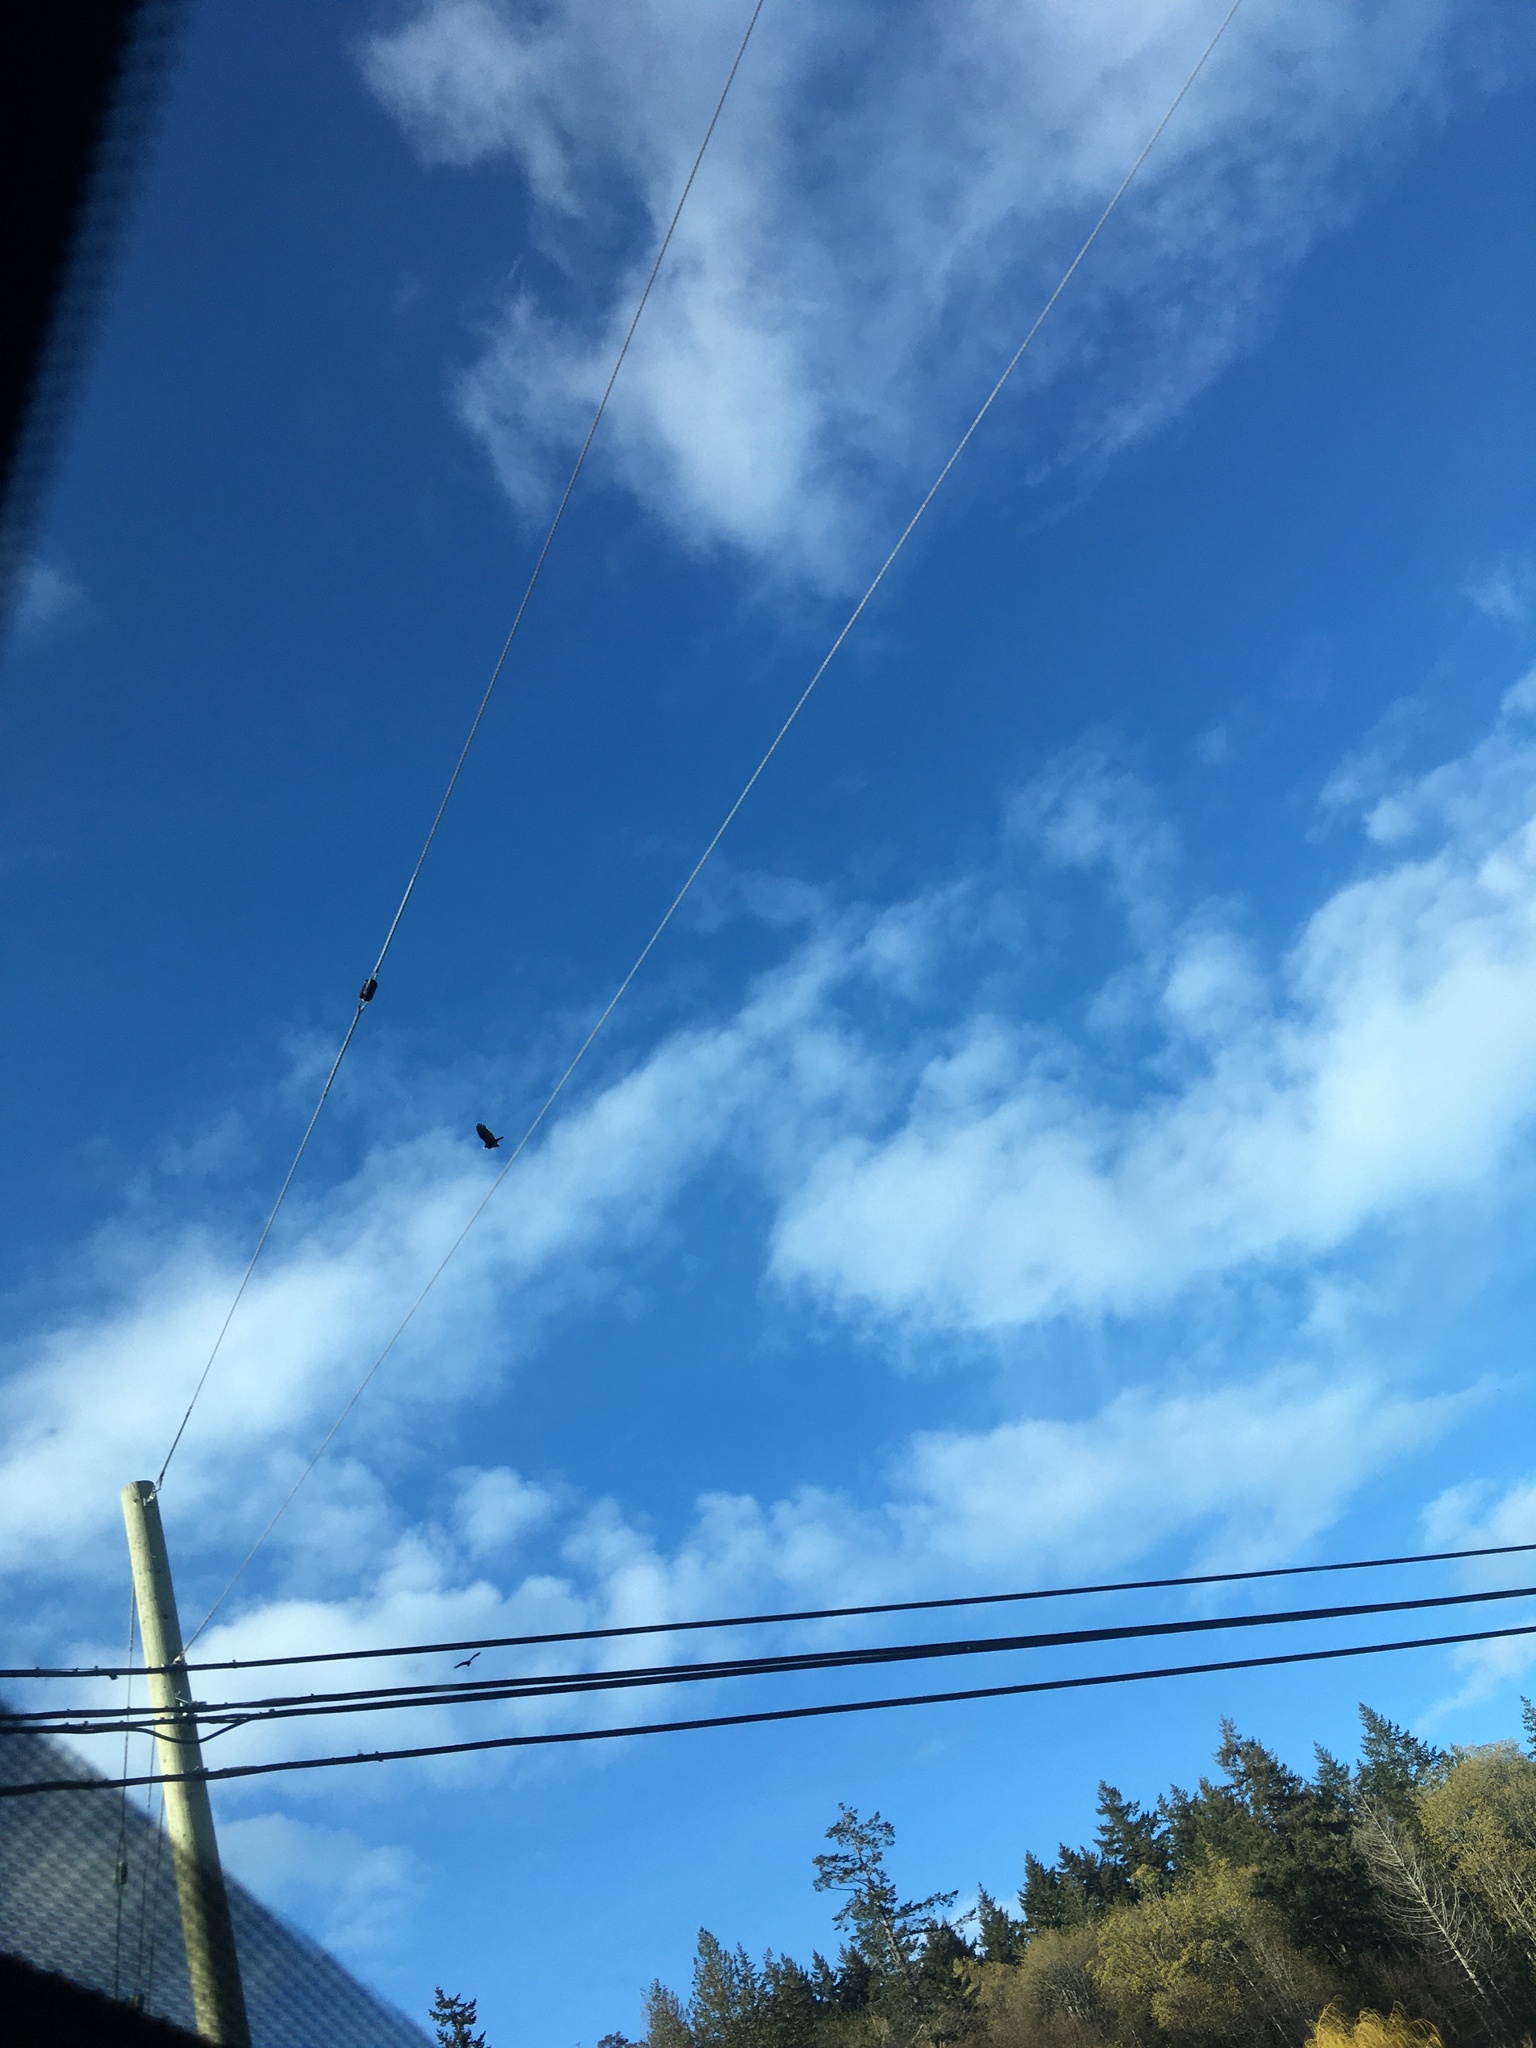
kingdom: Animalia
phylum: Chordata
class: Aves
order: Accipitriformes
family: Cathartidae
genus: Cathartes
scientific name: Cathartes aura
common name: Turkey vulture
